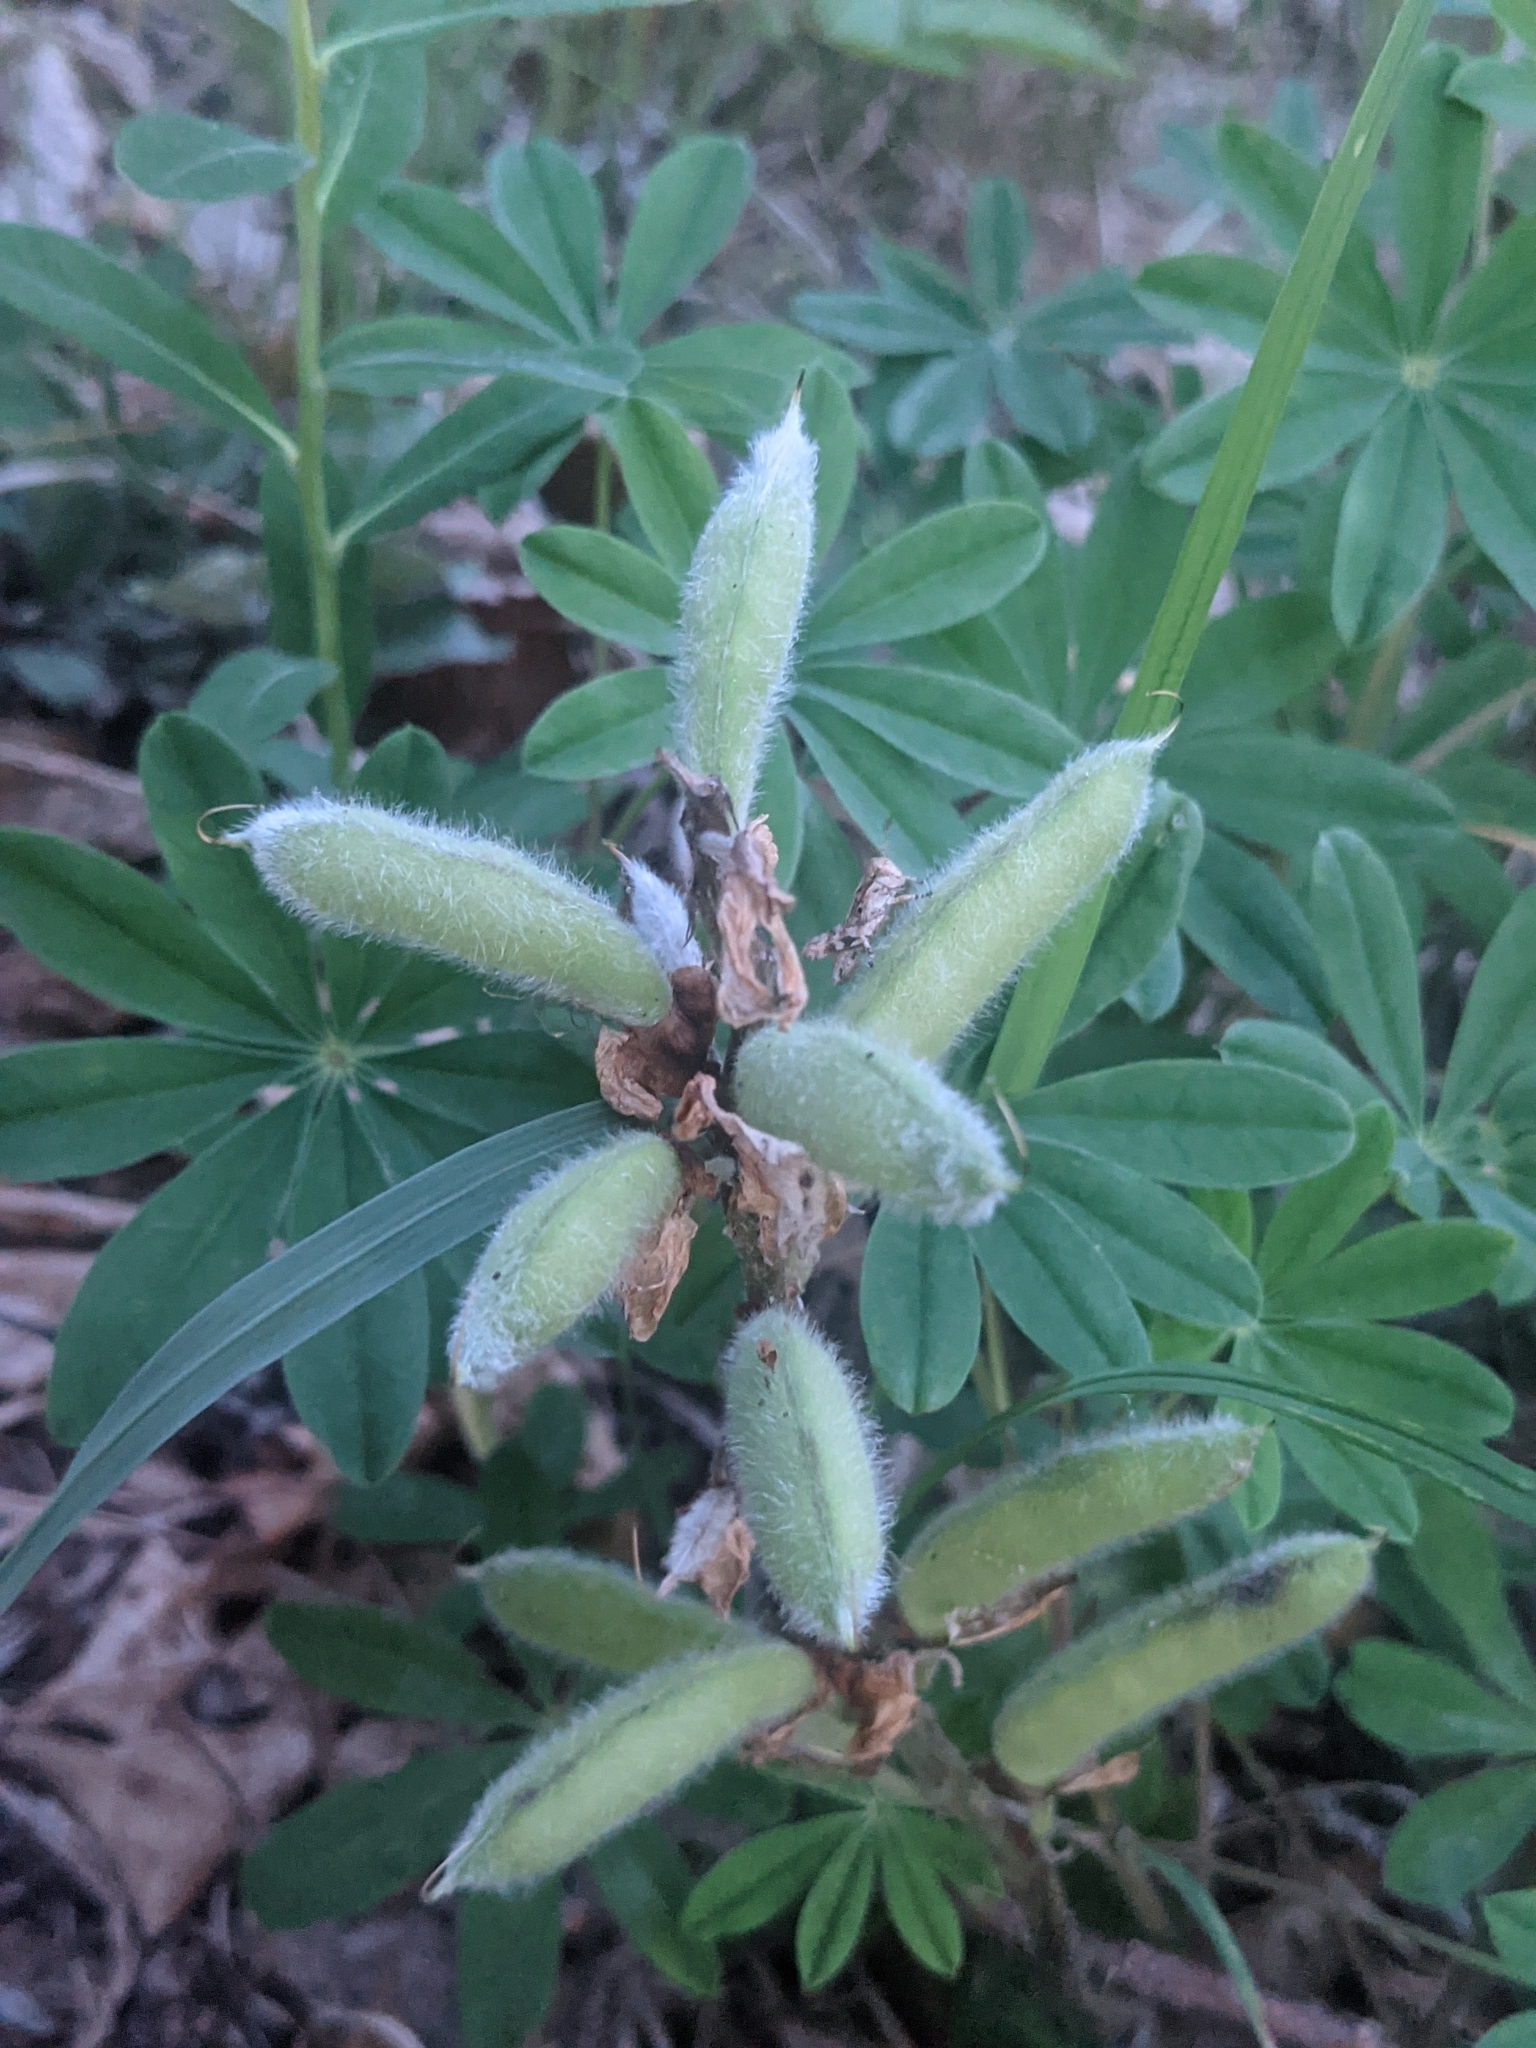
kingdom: Plantae
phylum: Tracheophyta
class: Magnoliopsida
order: Fabales
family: Fabaceae
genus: Lupinus
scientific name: Lupinus perennis
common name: Sundial lupine
